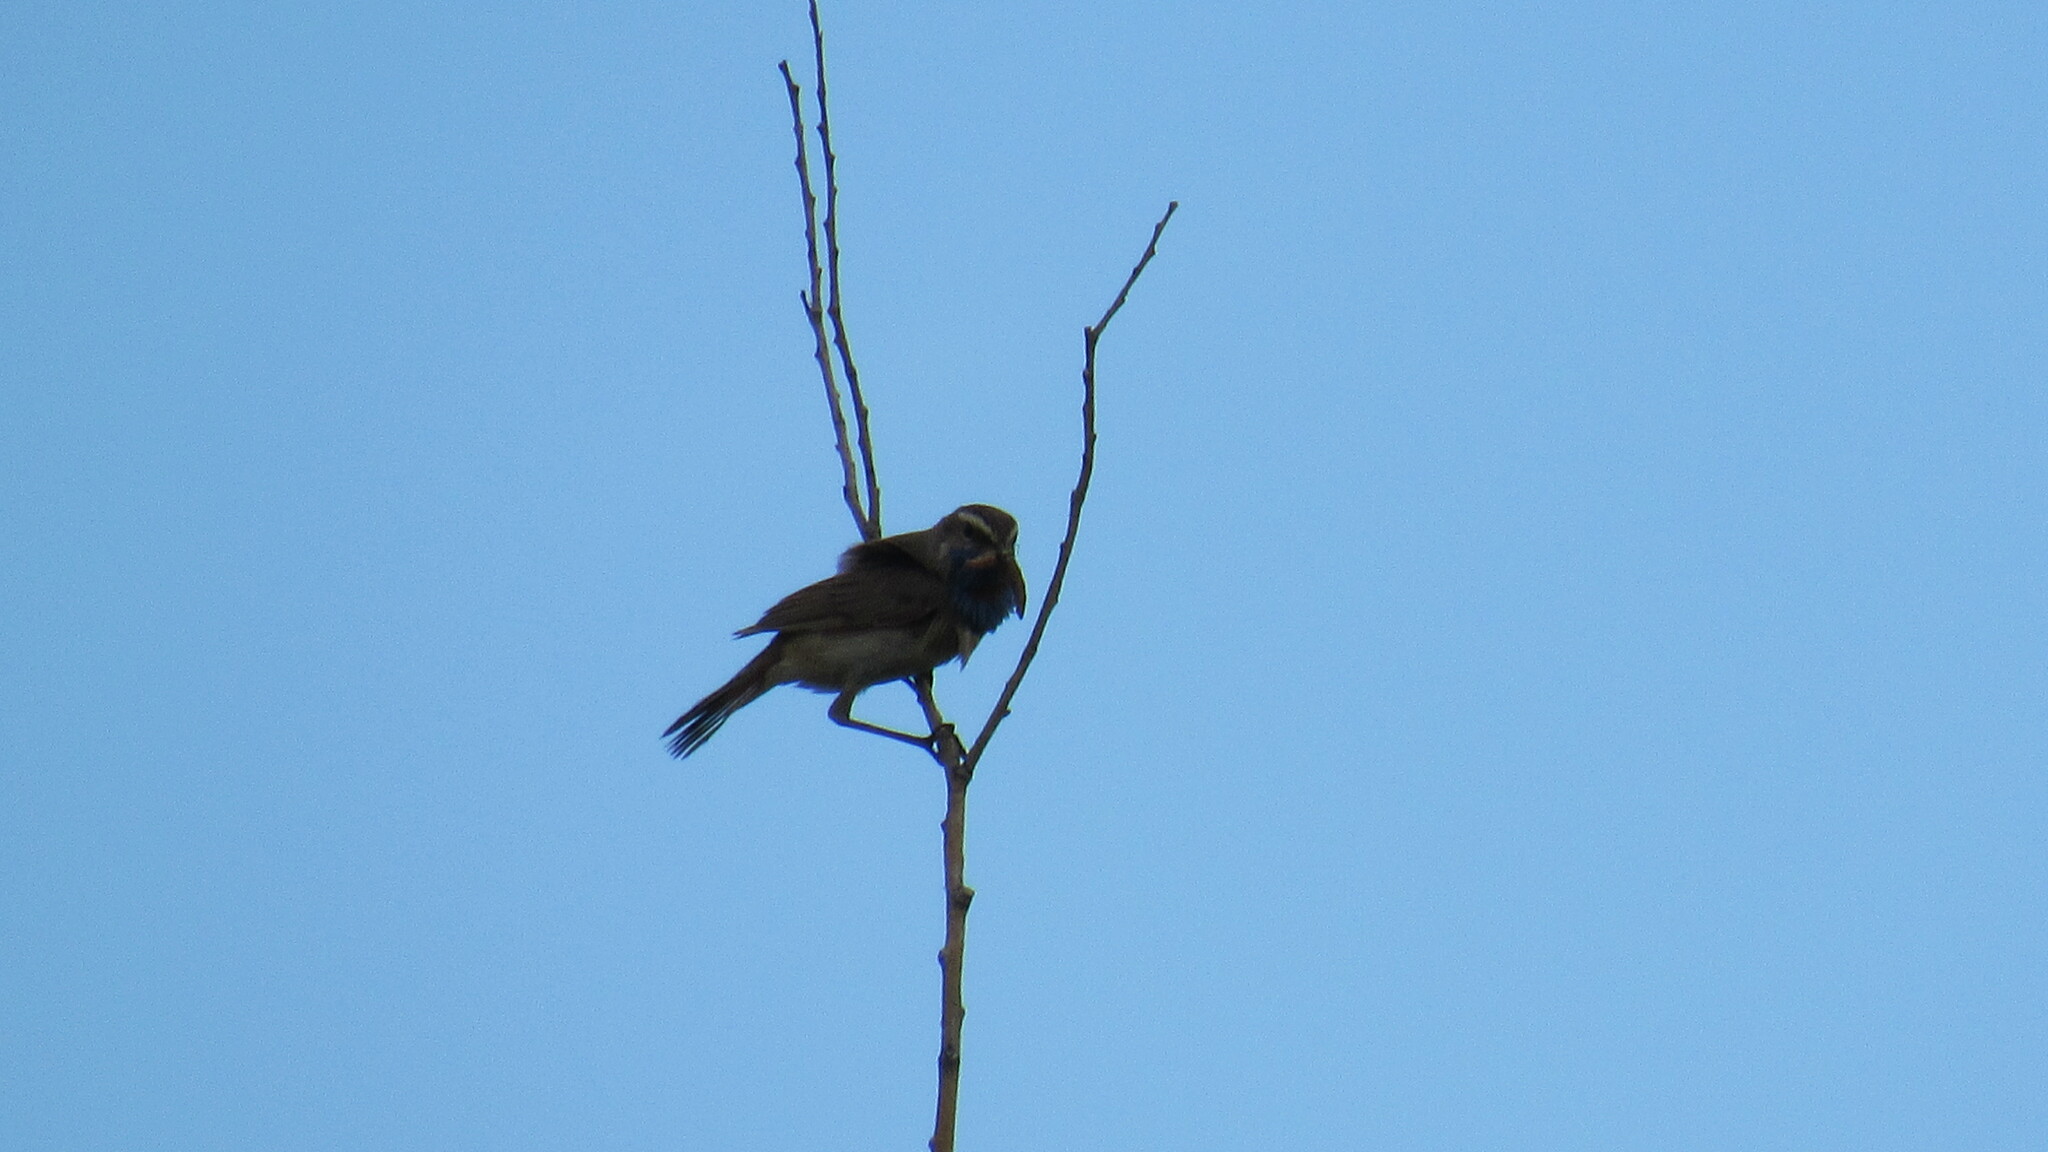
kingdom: Animalia
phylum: Chordata
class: Aves
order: Passeriformes
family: Muscicapidae
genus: Luscinia
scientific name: Luscinia svecica
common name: Bluethroat
